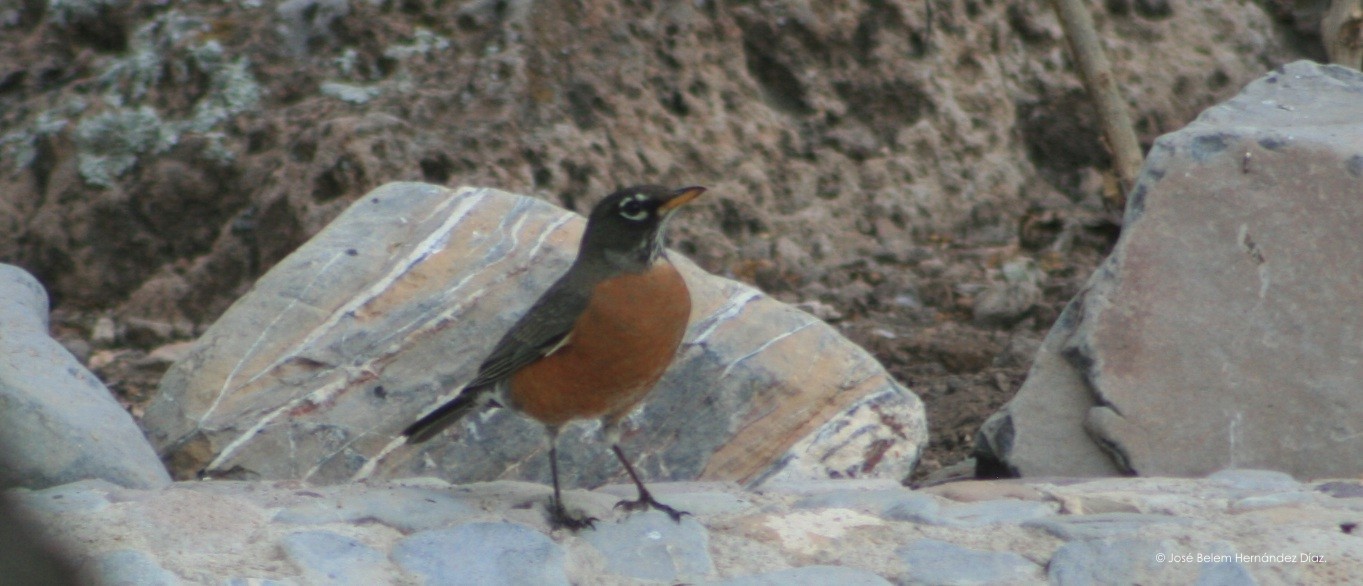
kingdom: Animalia
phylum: Chordata
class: Aves
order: Passeriformes
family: Turdidae
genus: Turdus
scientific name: Turdus migratorius
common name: American robin
